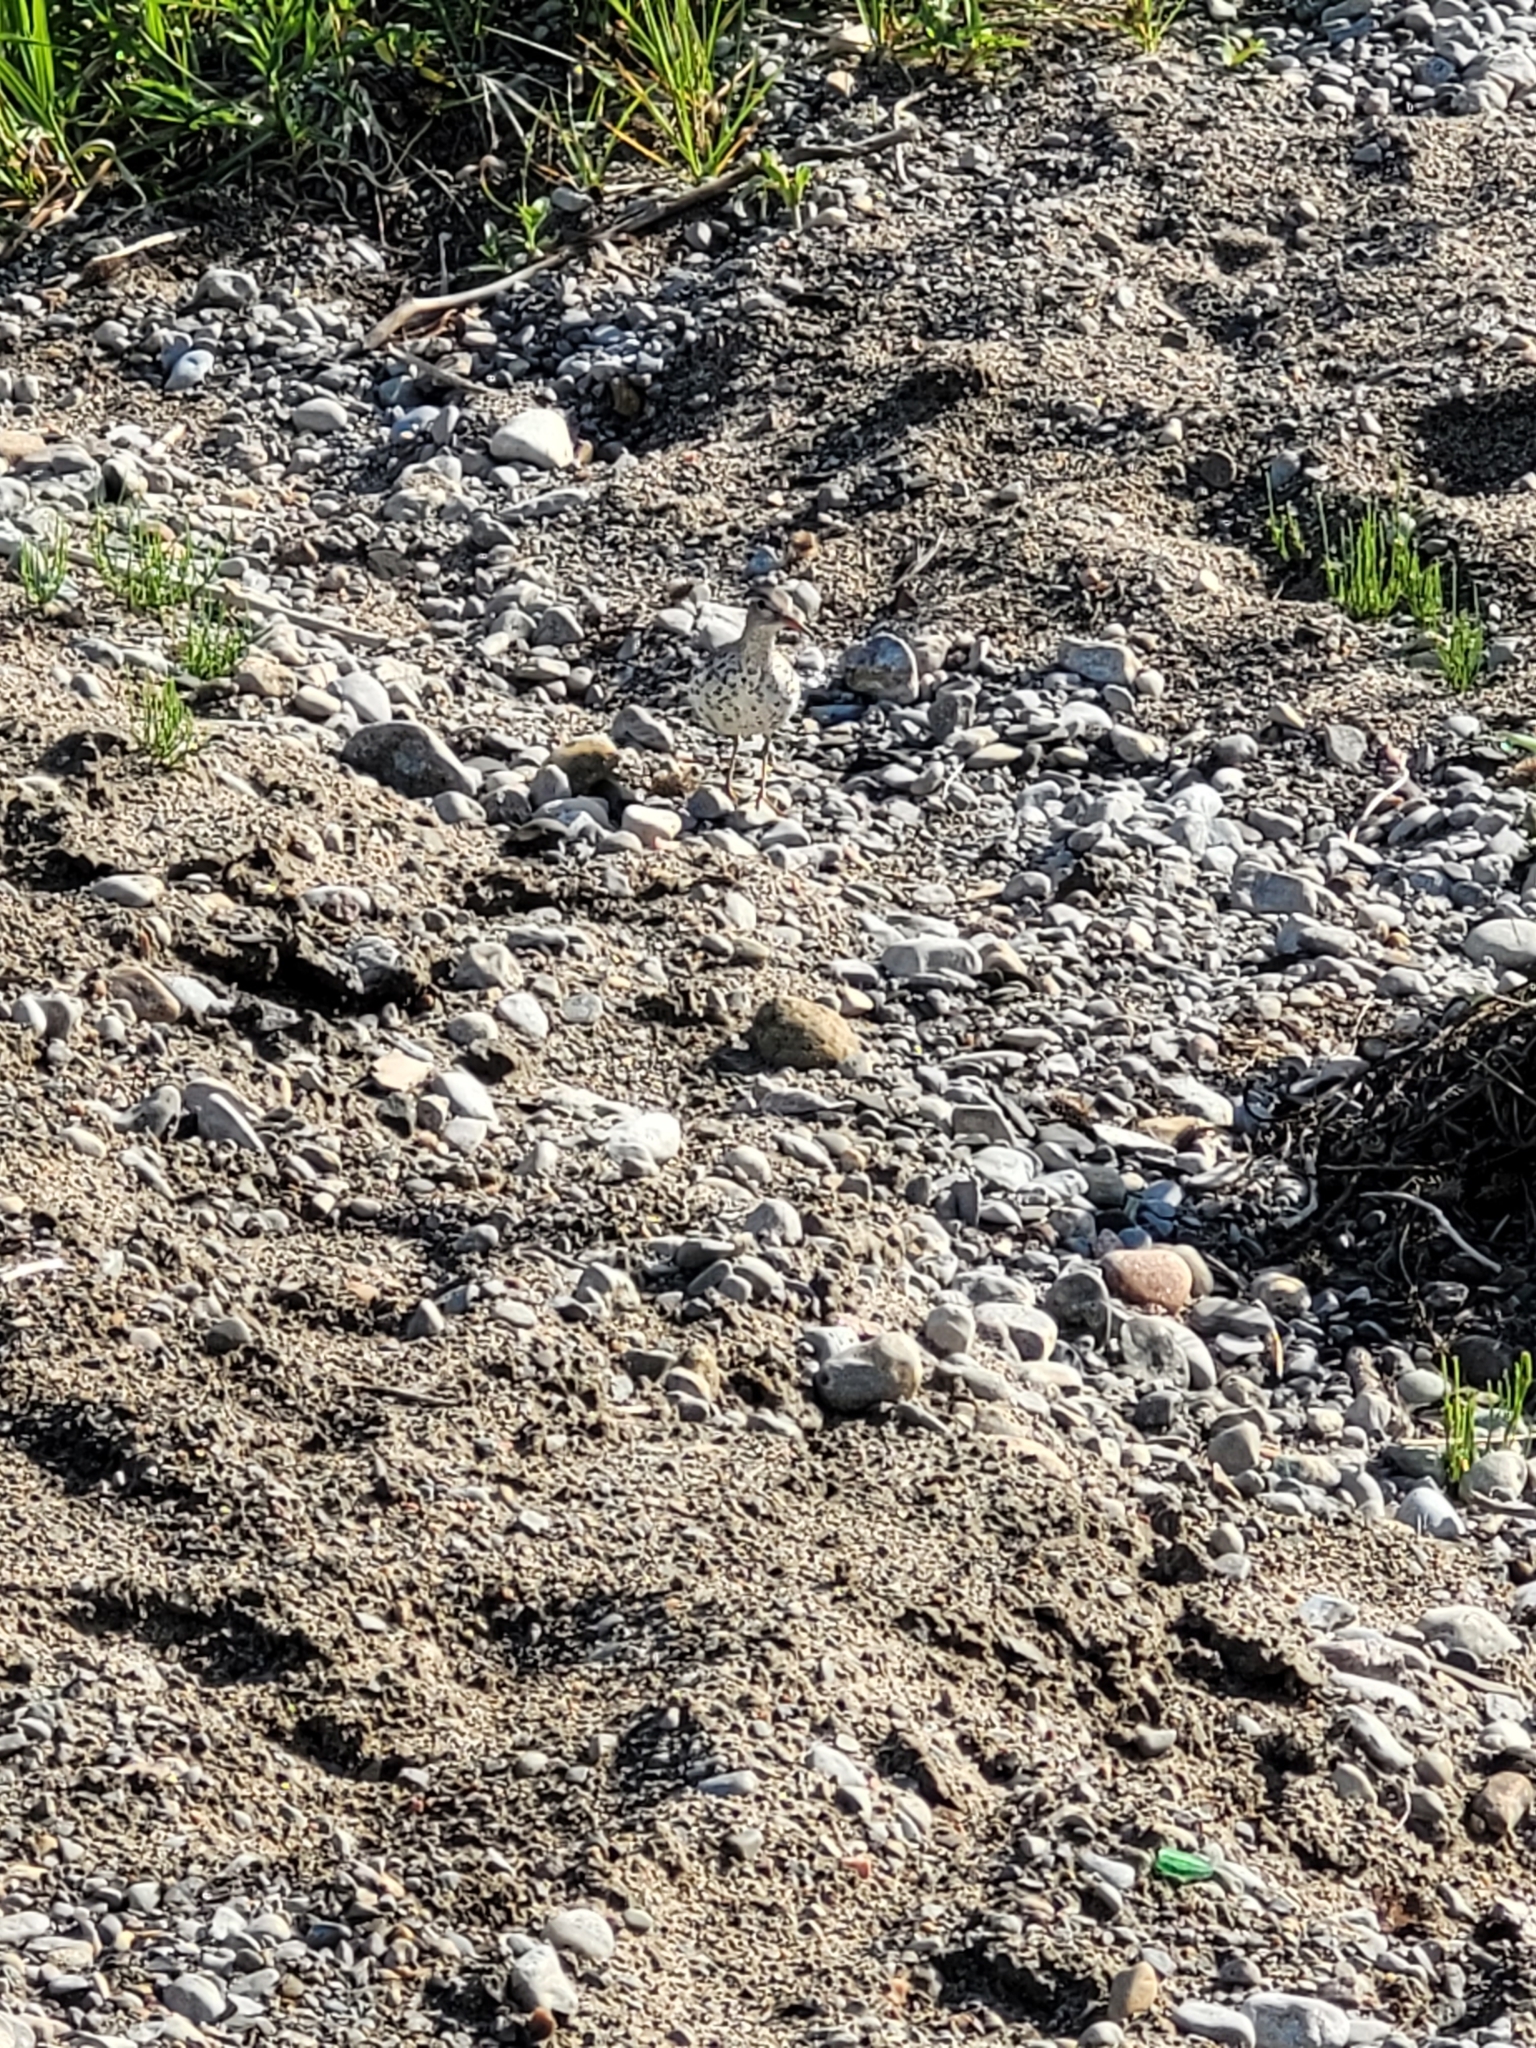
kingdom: Animalia
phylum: Chordata
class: Aves
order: Charadriiformes
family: Scolopacidae
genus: Actitis
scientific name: Actitis macularius
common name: Spotted sandpiper
